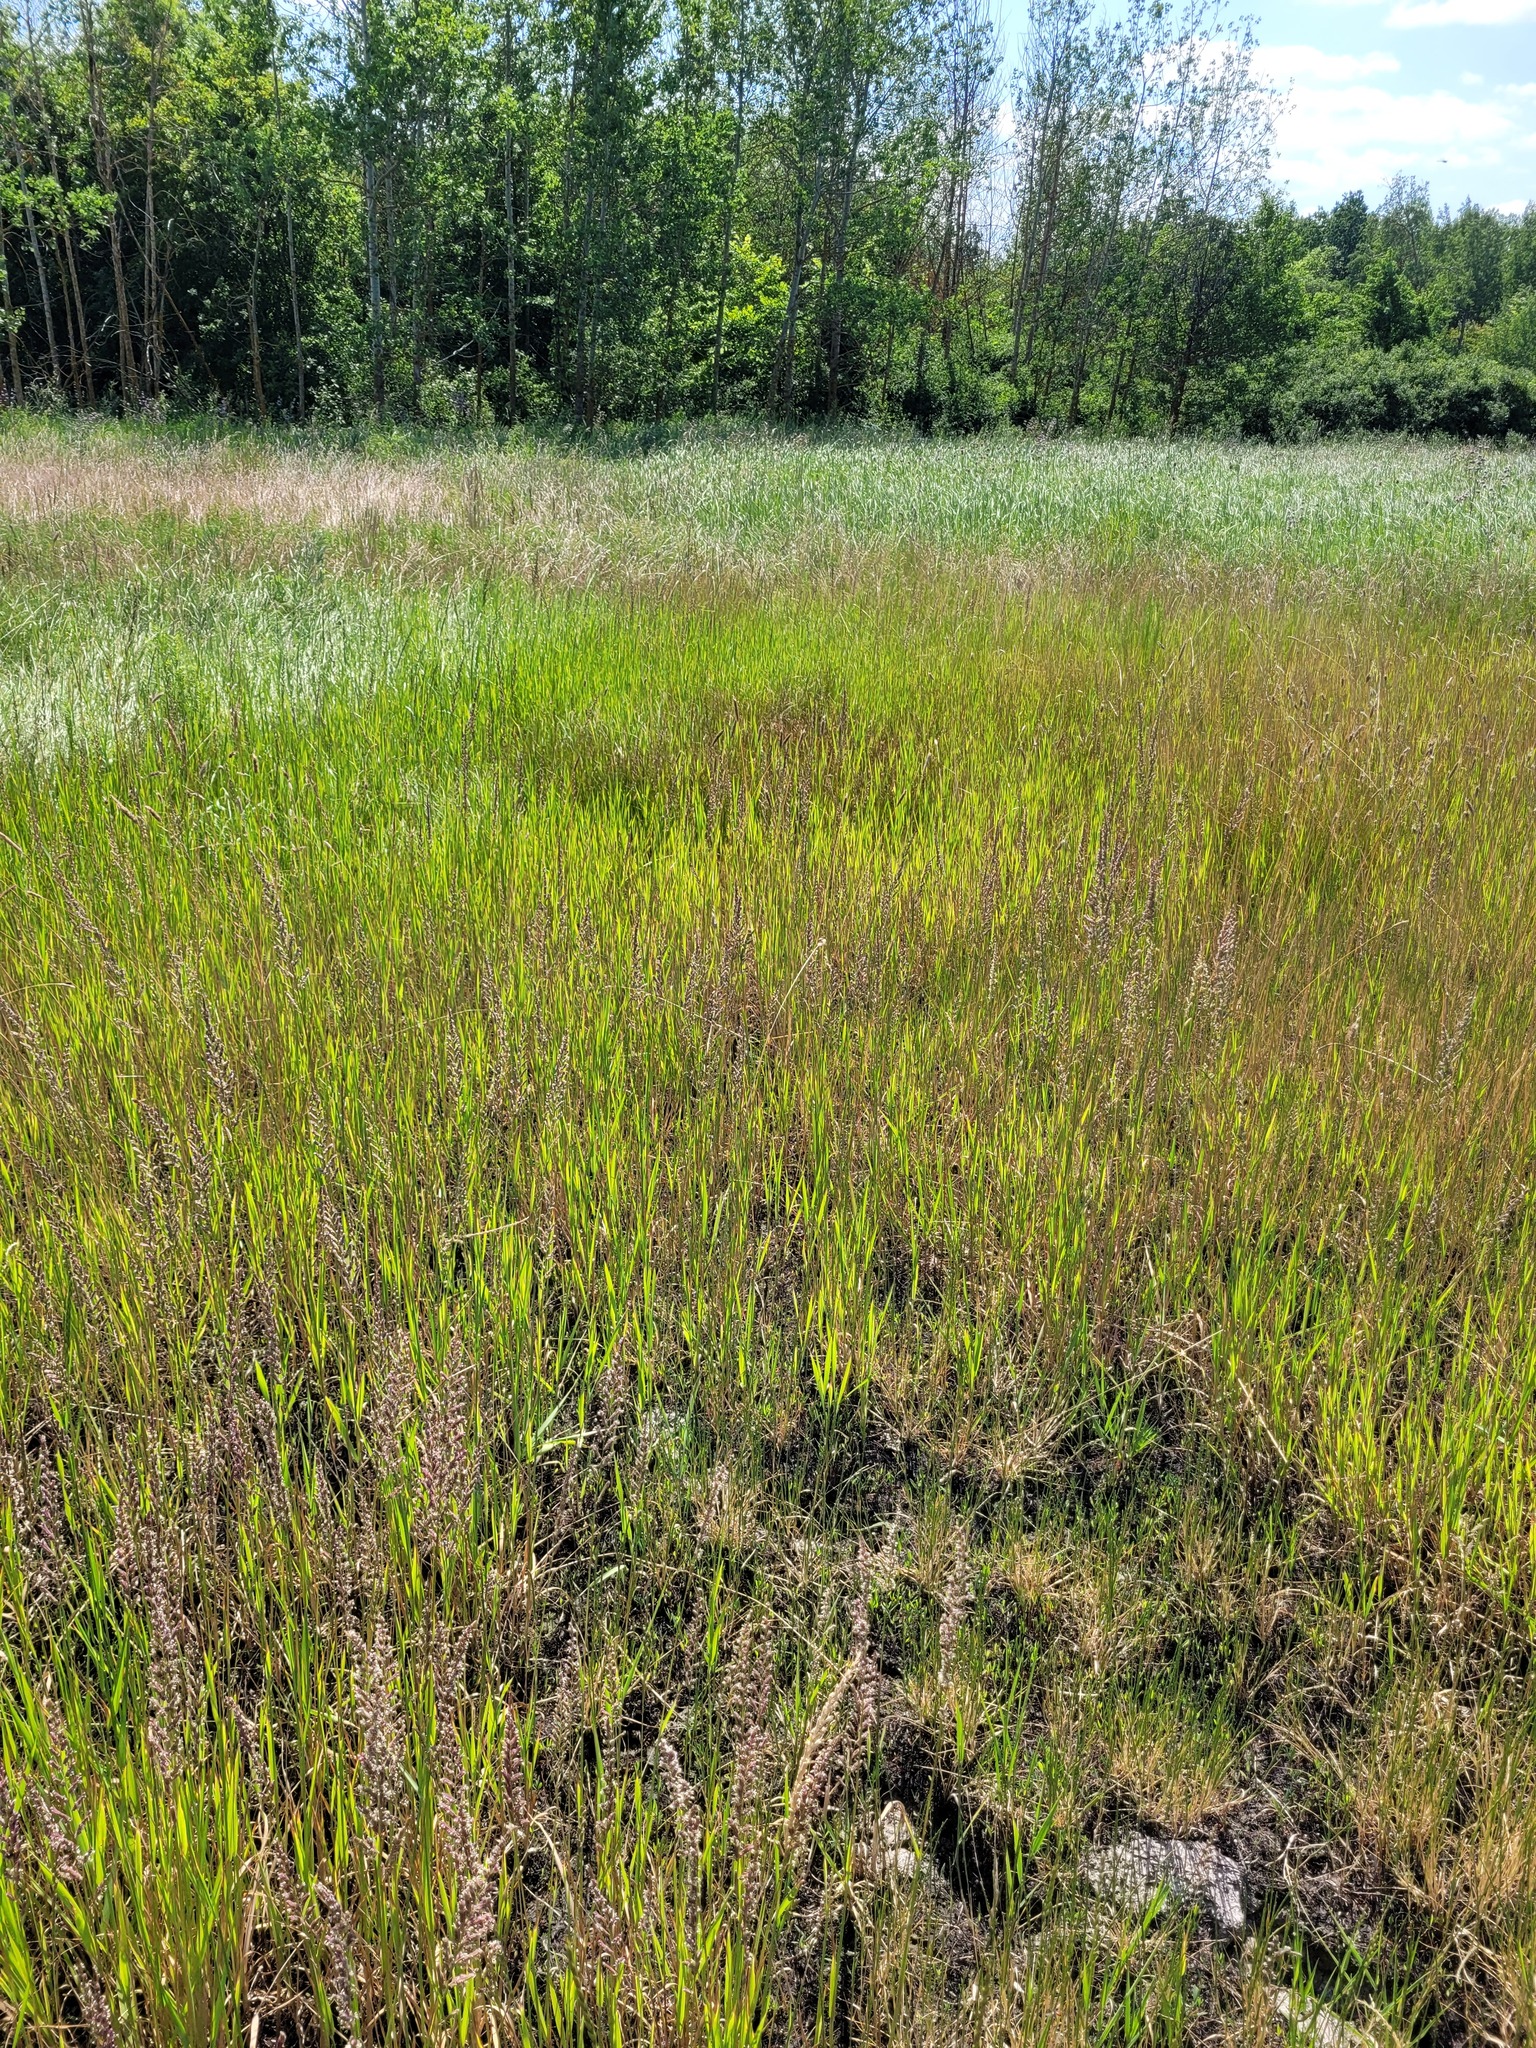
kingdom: Plantae
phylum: Tracheophyta
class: Liliopsida
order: Poales
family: Poaceae
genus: Beckmannia
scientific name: Beckmannia eruciformis
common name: European slough-grass
